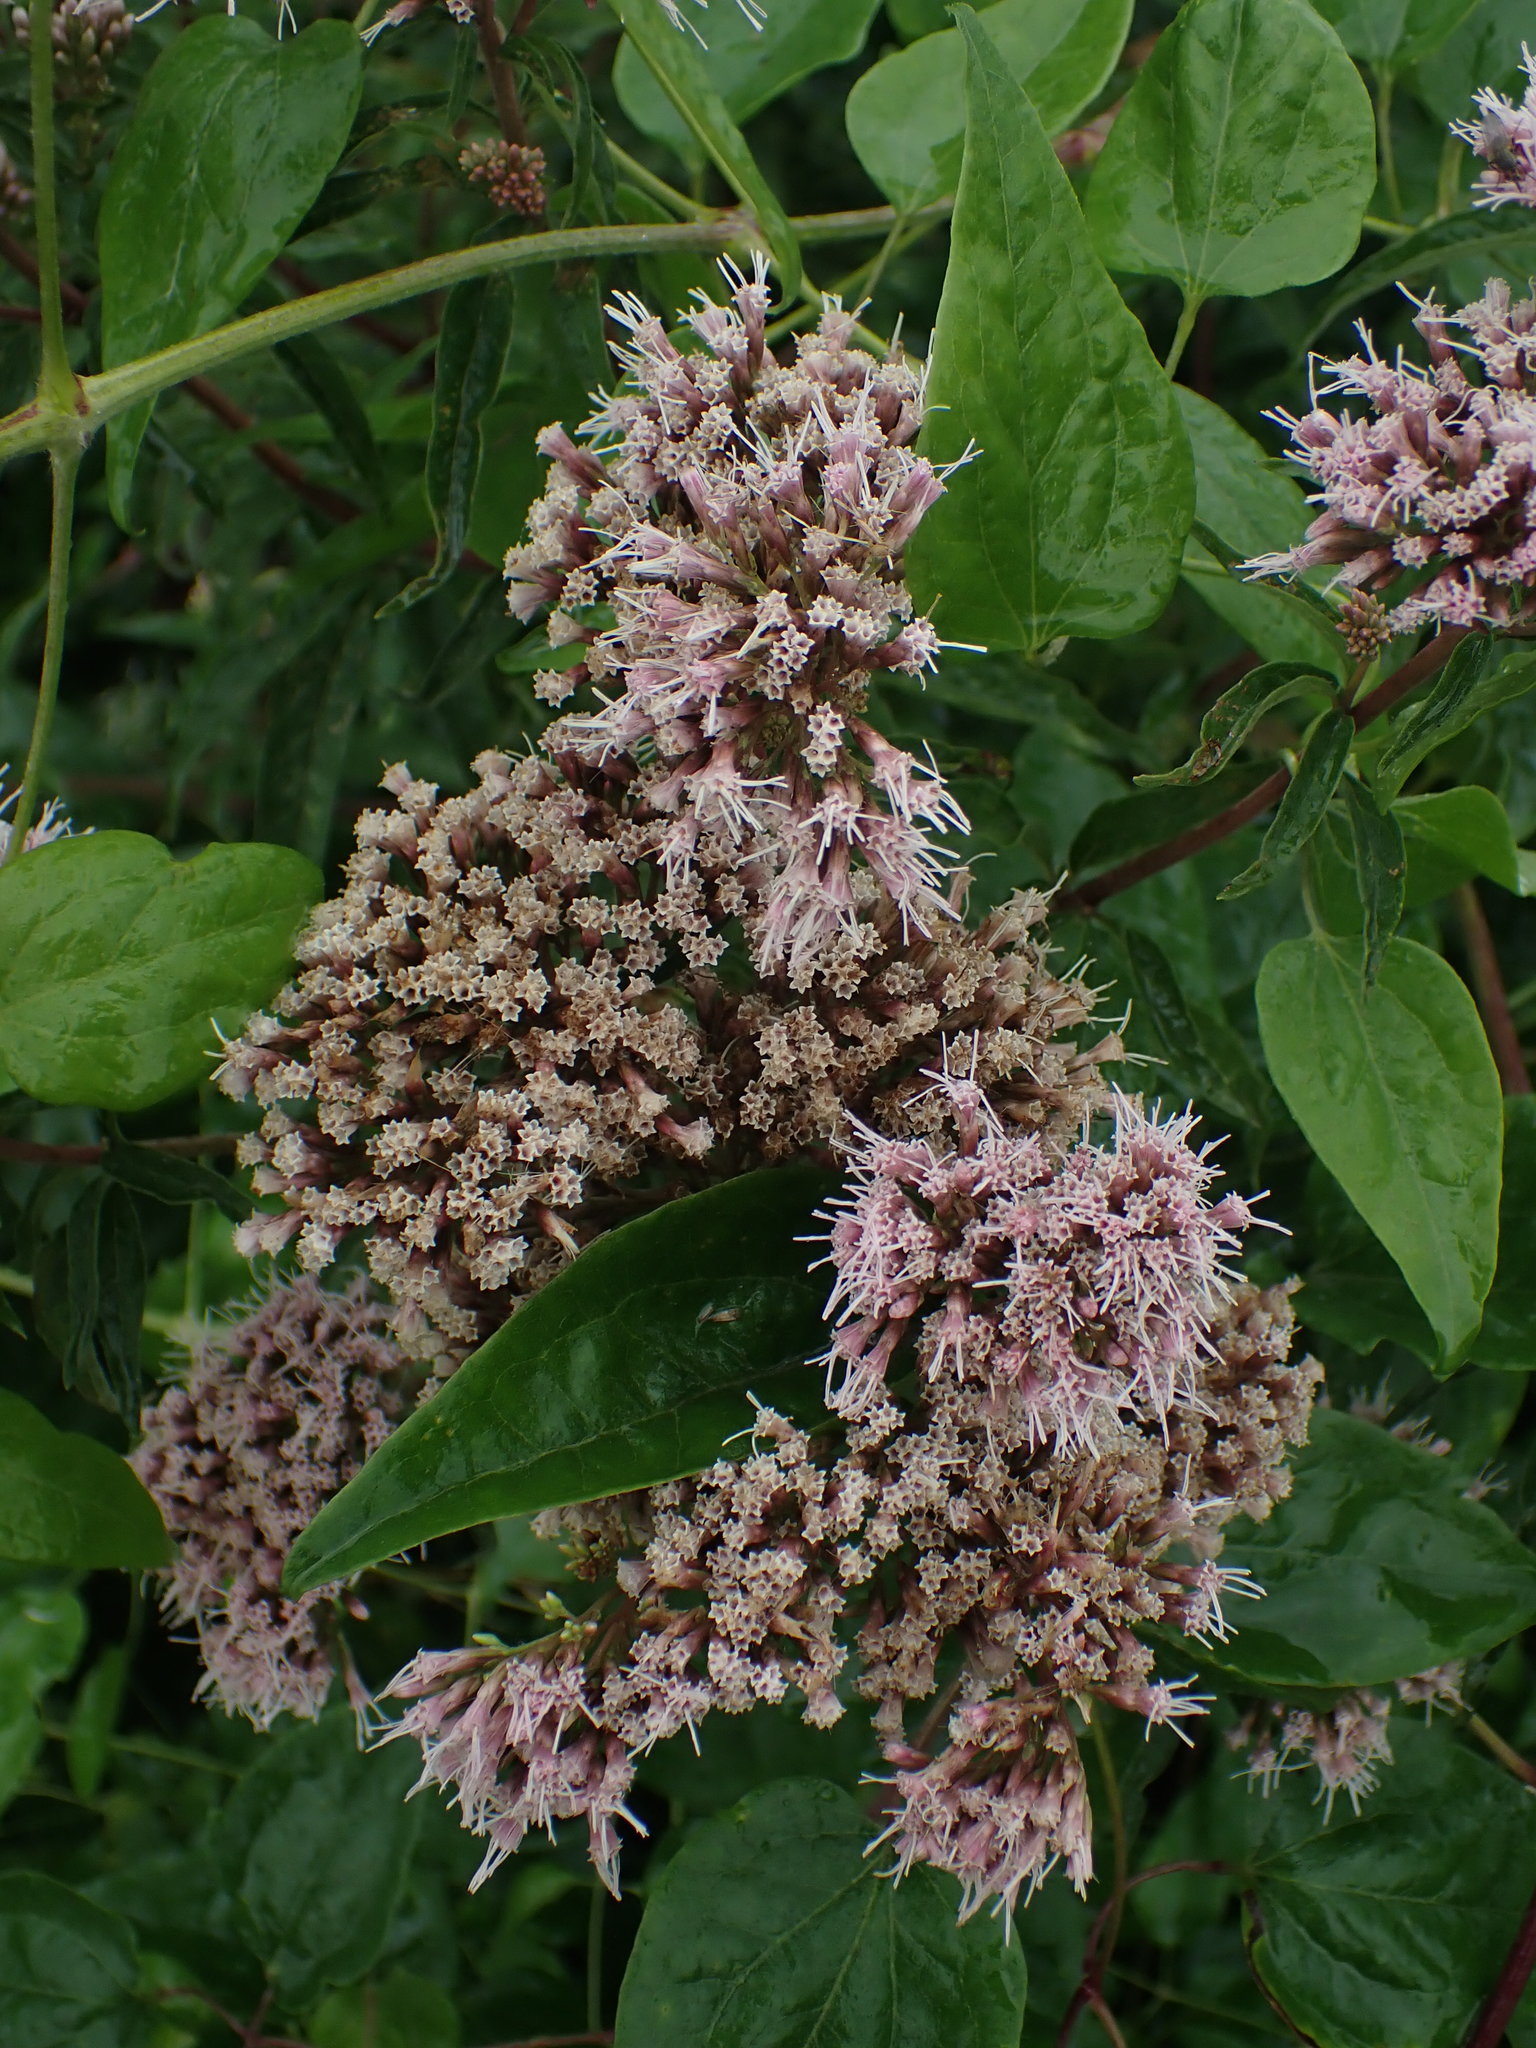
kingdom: Plantae
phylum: Tracheophyta
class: Magnoliopsida
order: Asterales
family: Asteraceae
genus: Eupatorium
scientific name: Eupatorium cannabinum
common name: Hemp-agrimony
